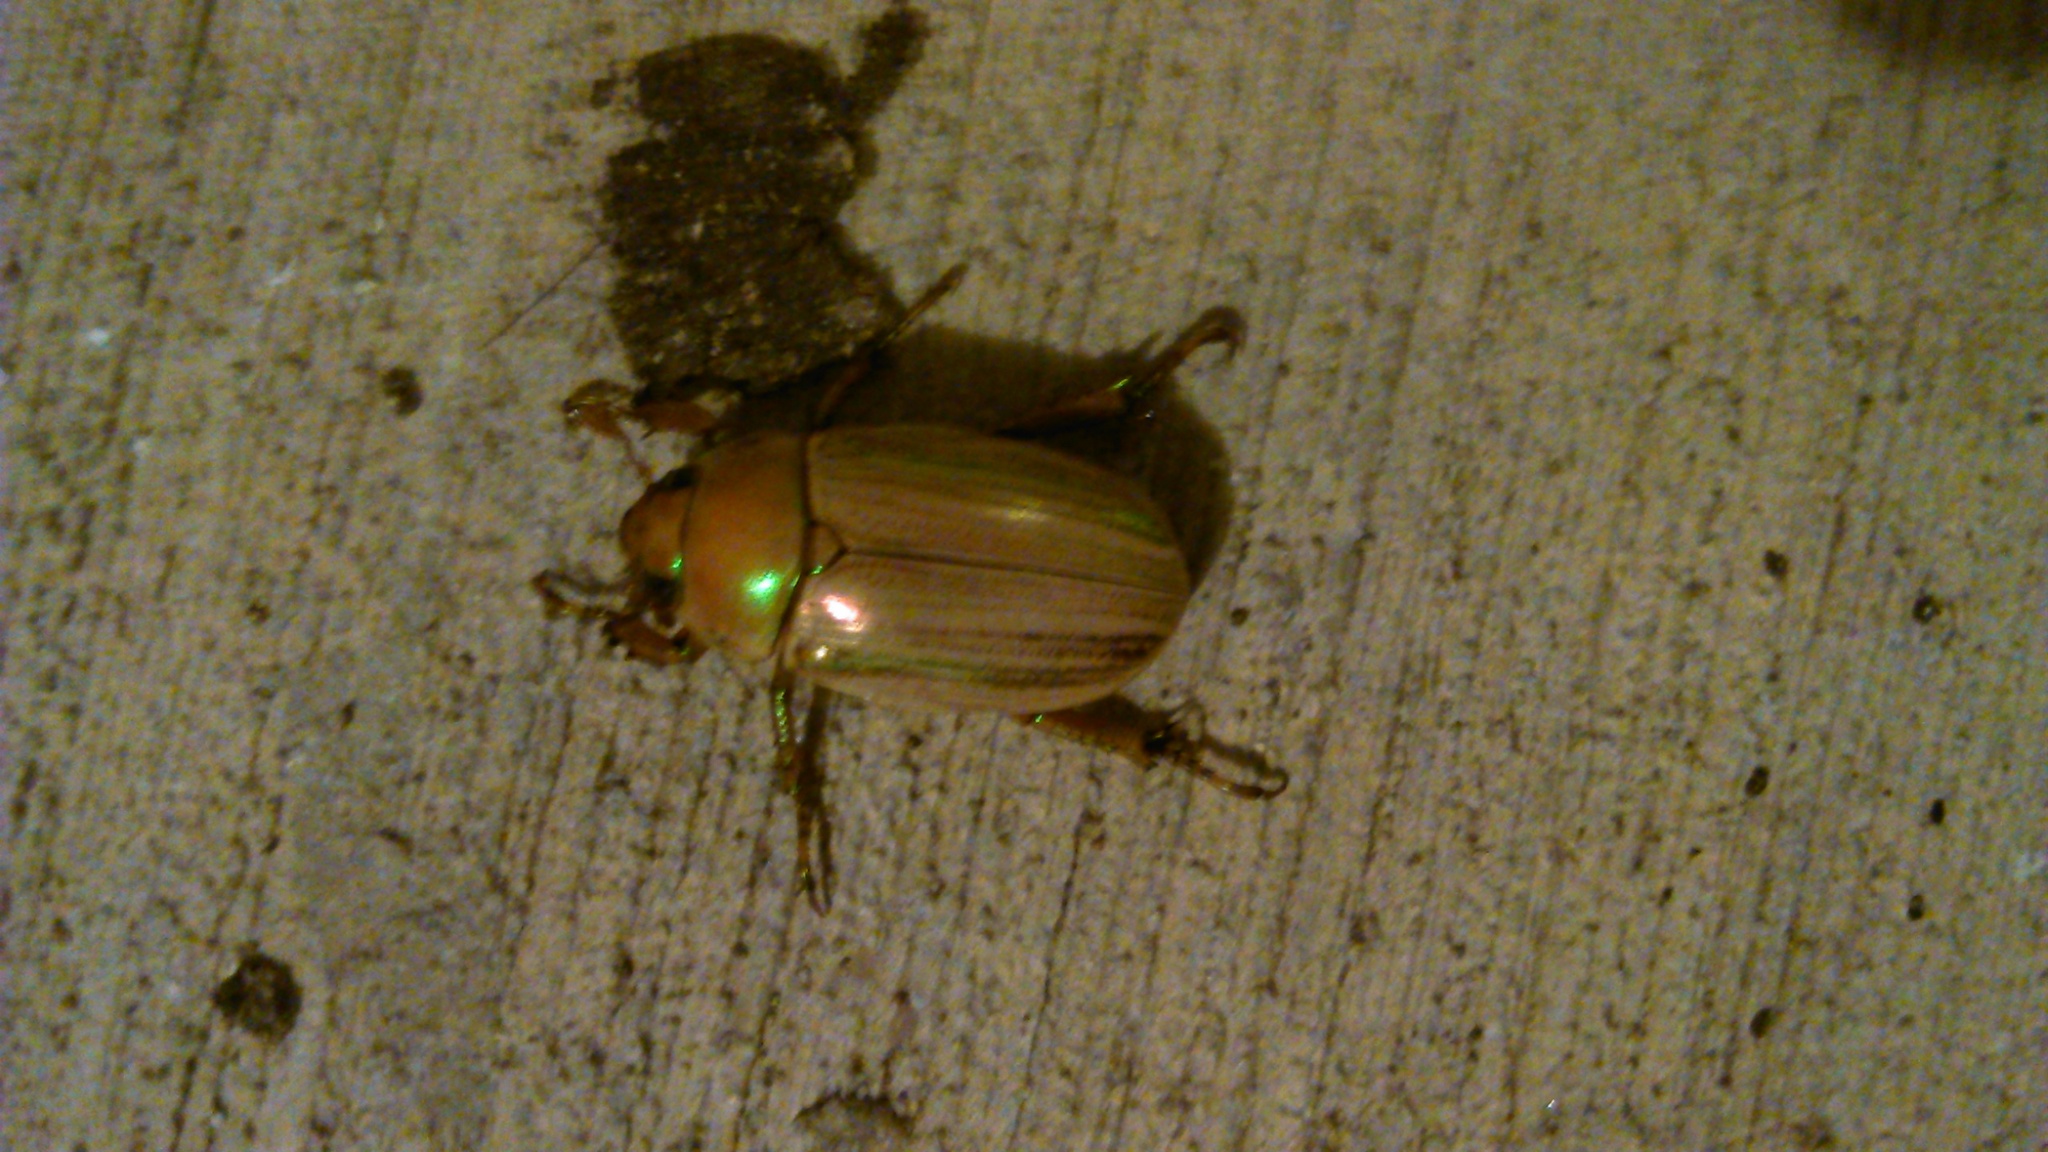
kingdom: Animalia
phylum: Arthropoda
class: Insecta
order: Coleoptera
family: Scarabaeidae
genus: Pelidnota
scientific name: Pelidnota strigosa
